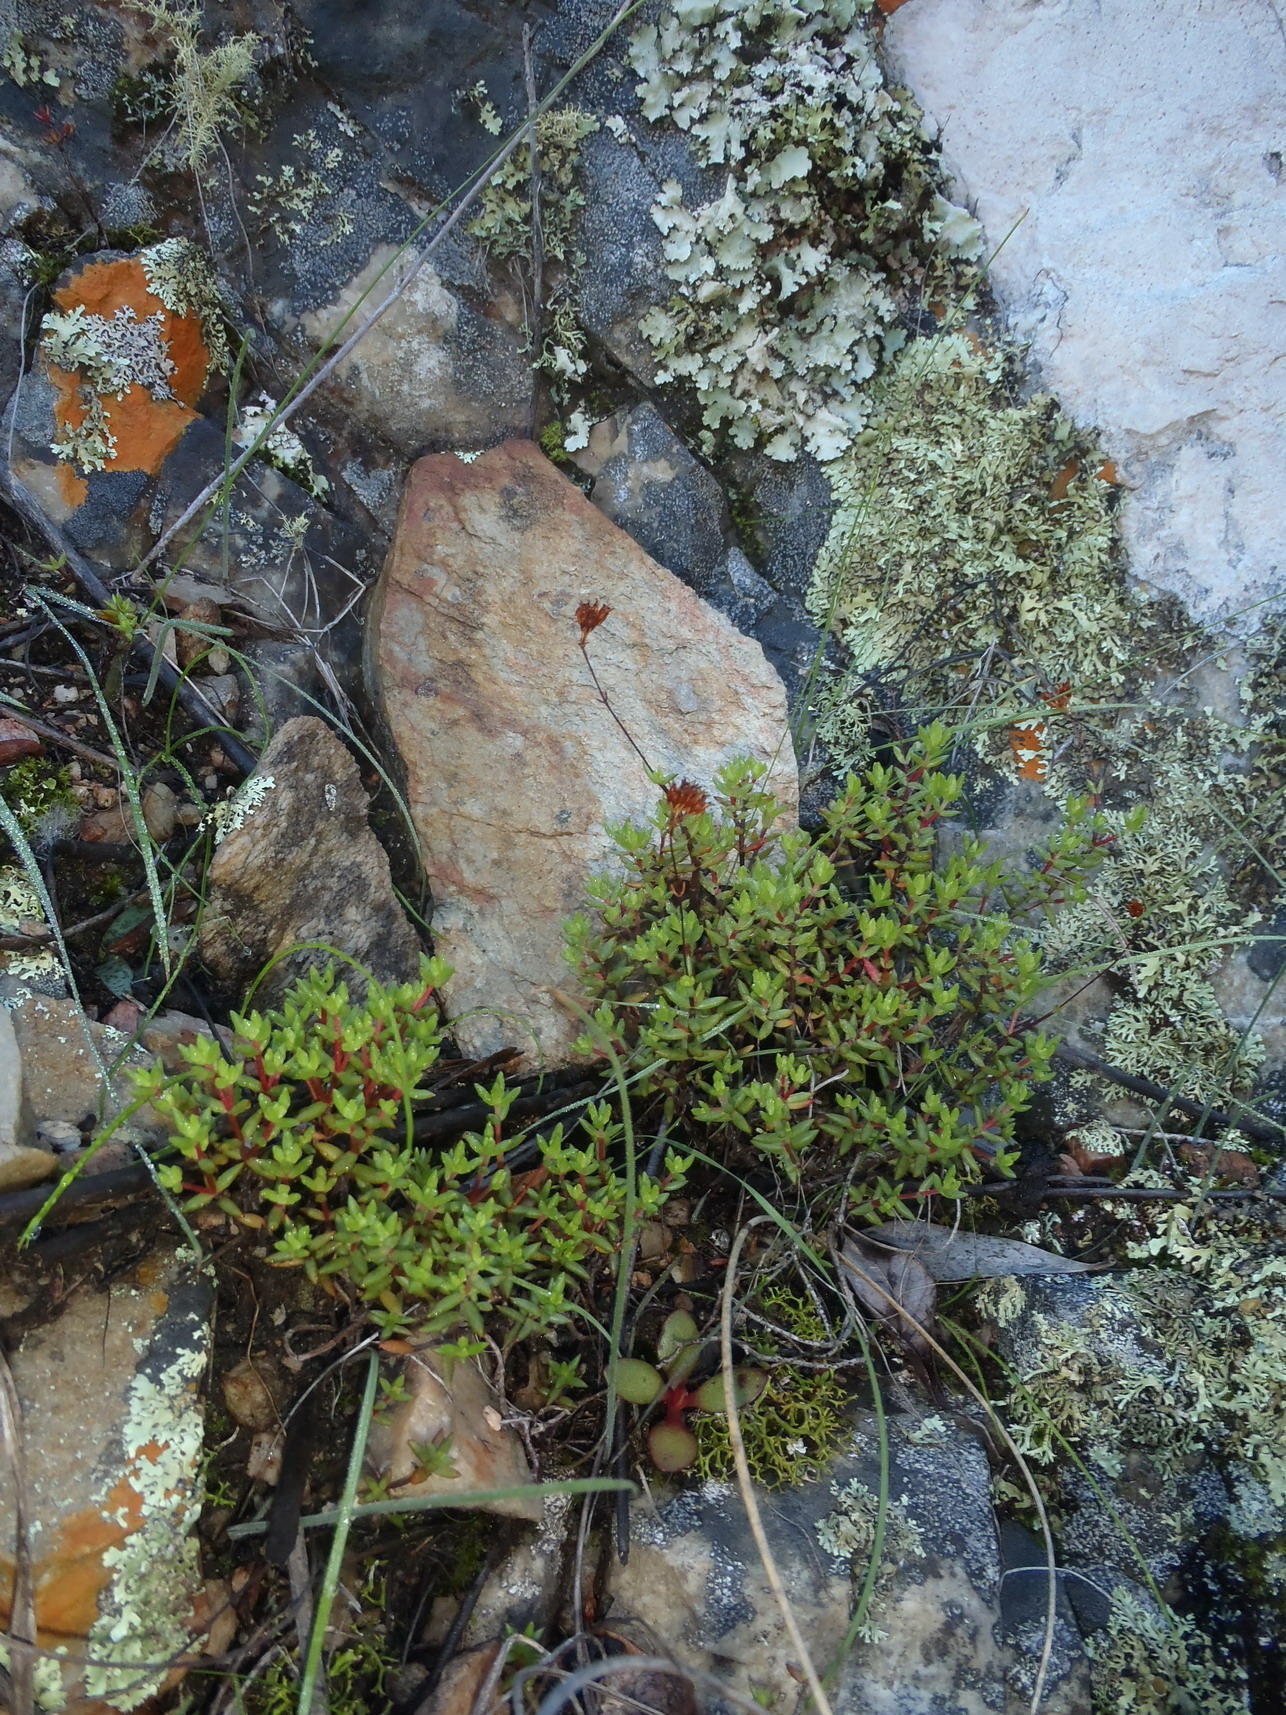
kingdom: Plantae
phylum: Tracheophyta
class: Magnoliopsida
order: Saxifragales
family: Crassulaceae
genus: Crassula
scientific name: Crassula biplanata
